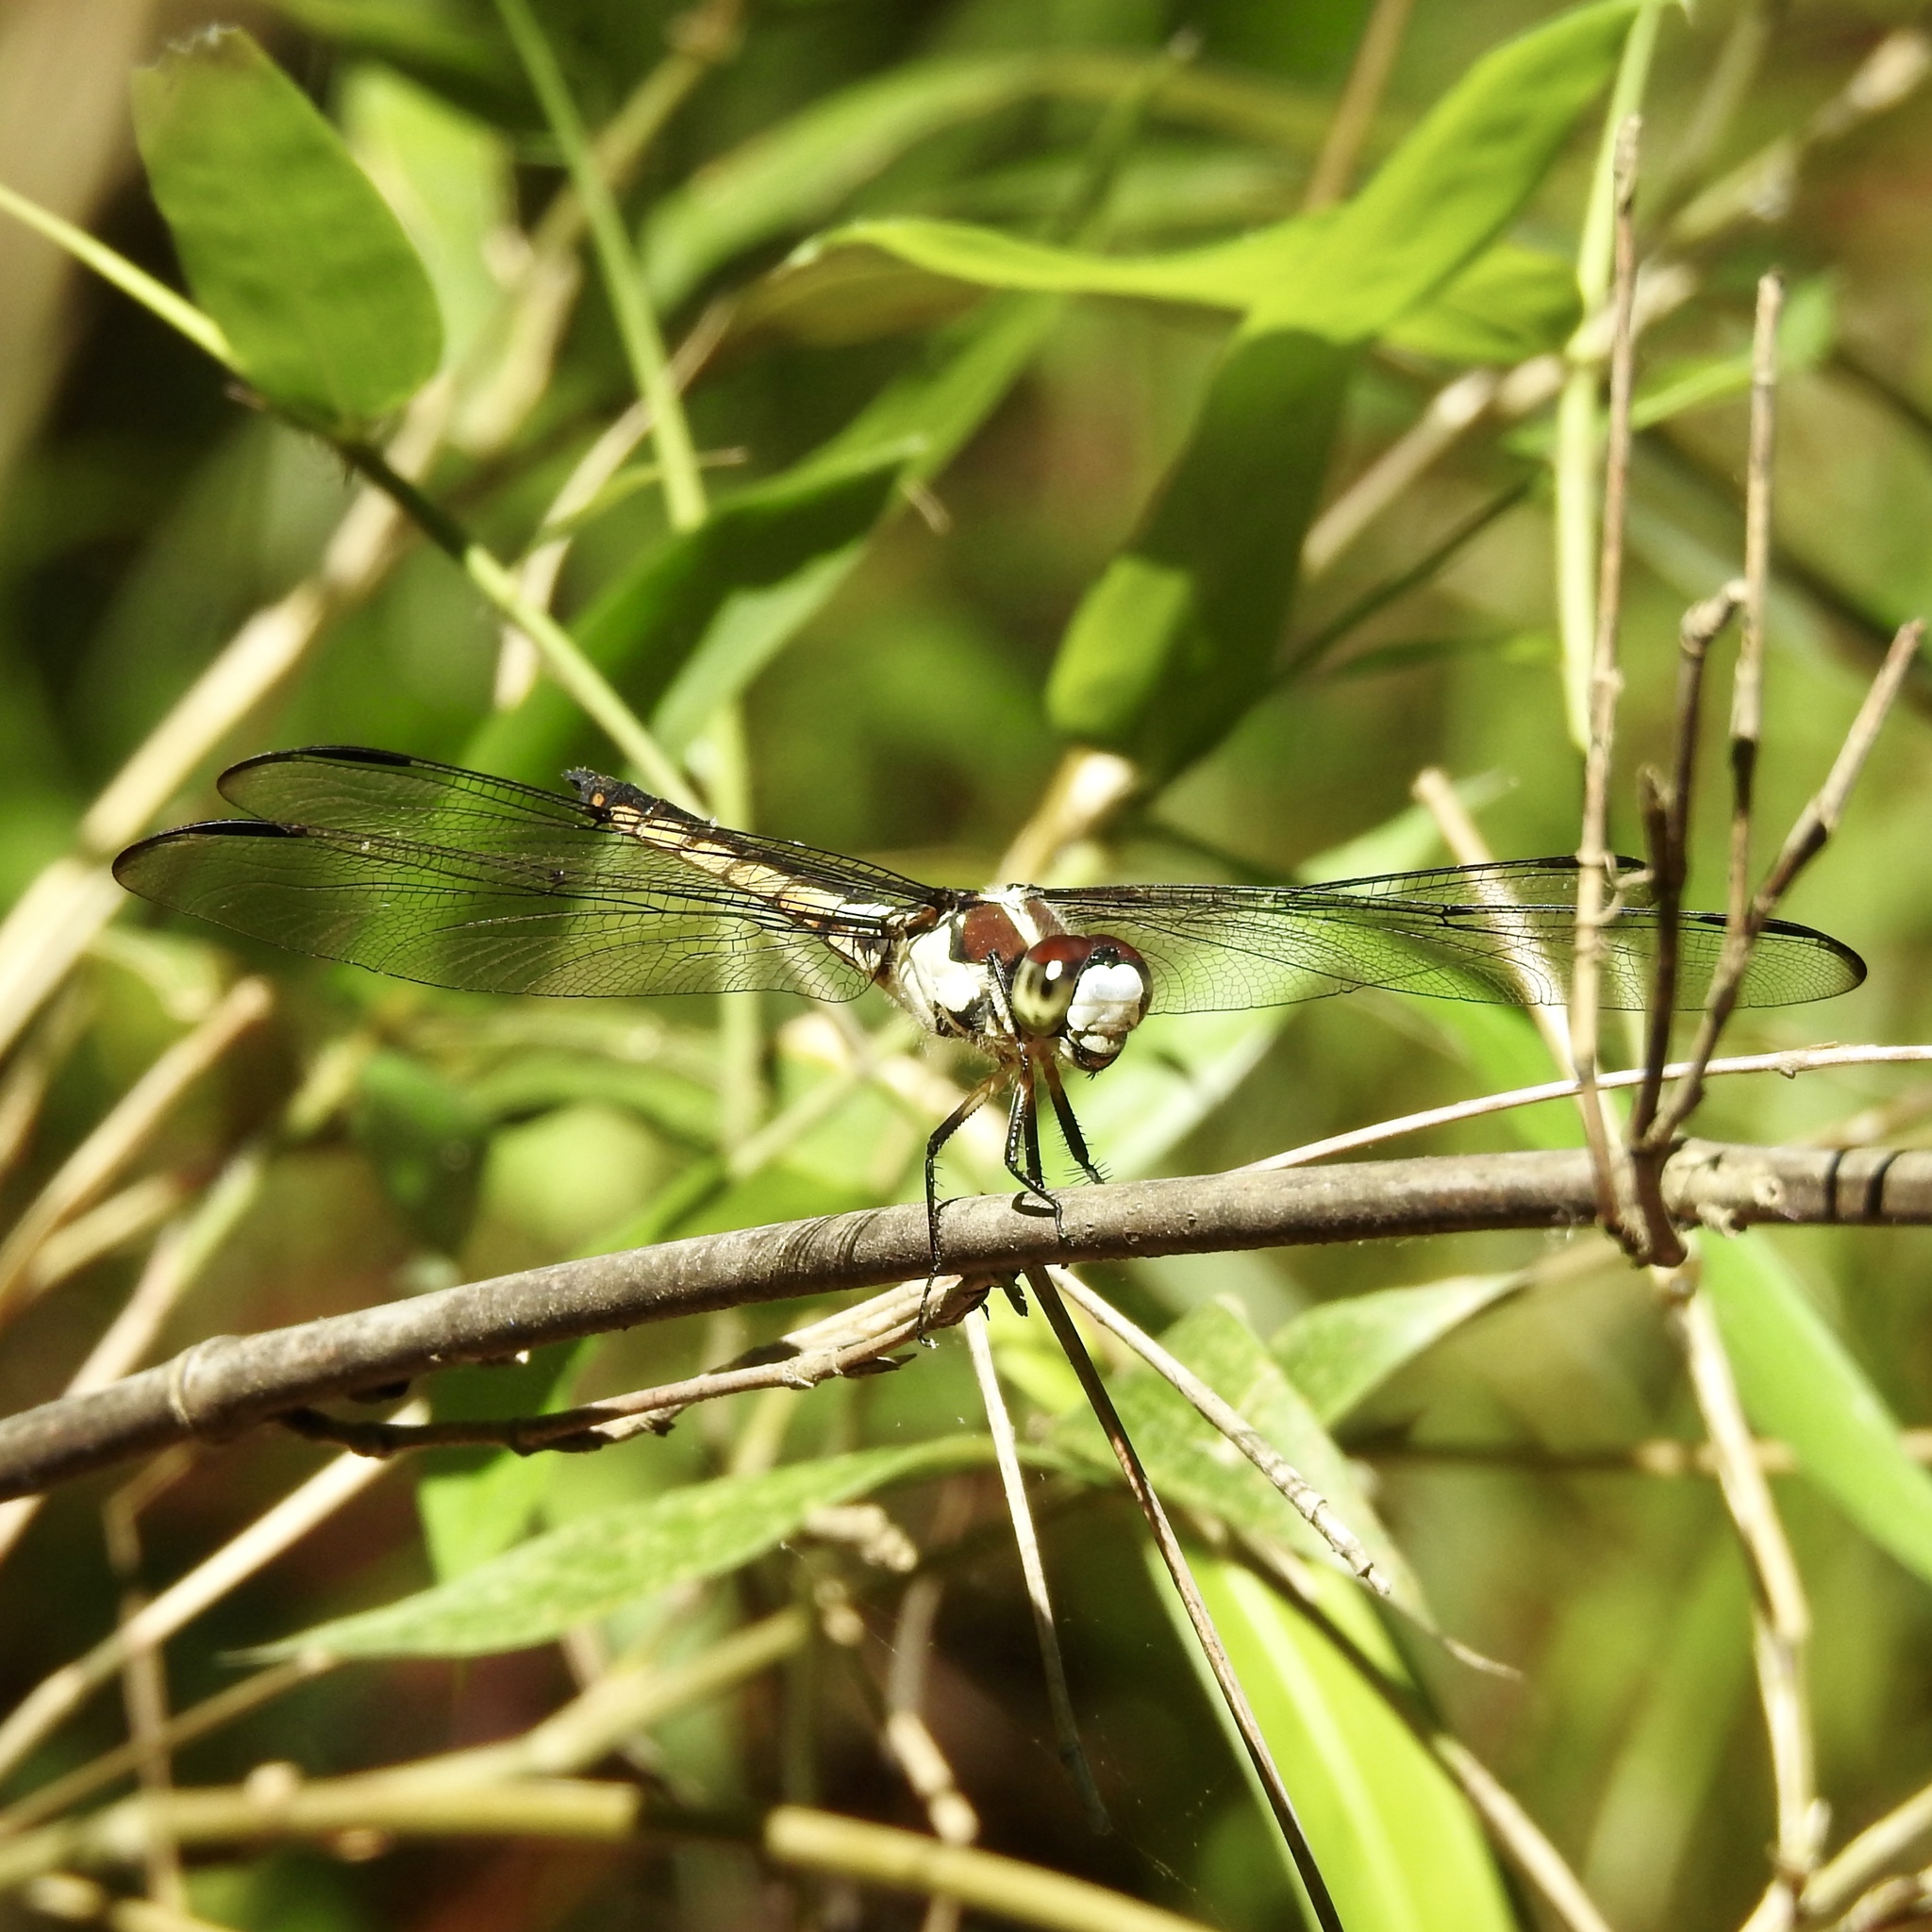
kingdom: Animalia
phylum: Arthropoda
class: Insecta
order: Odonata
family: Libellulidae
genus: Libellula
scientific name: Libellula vibrans
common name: Great blue skimmer
